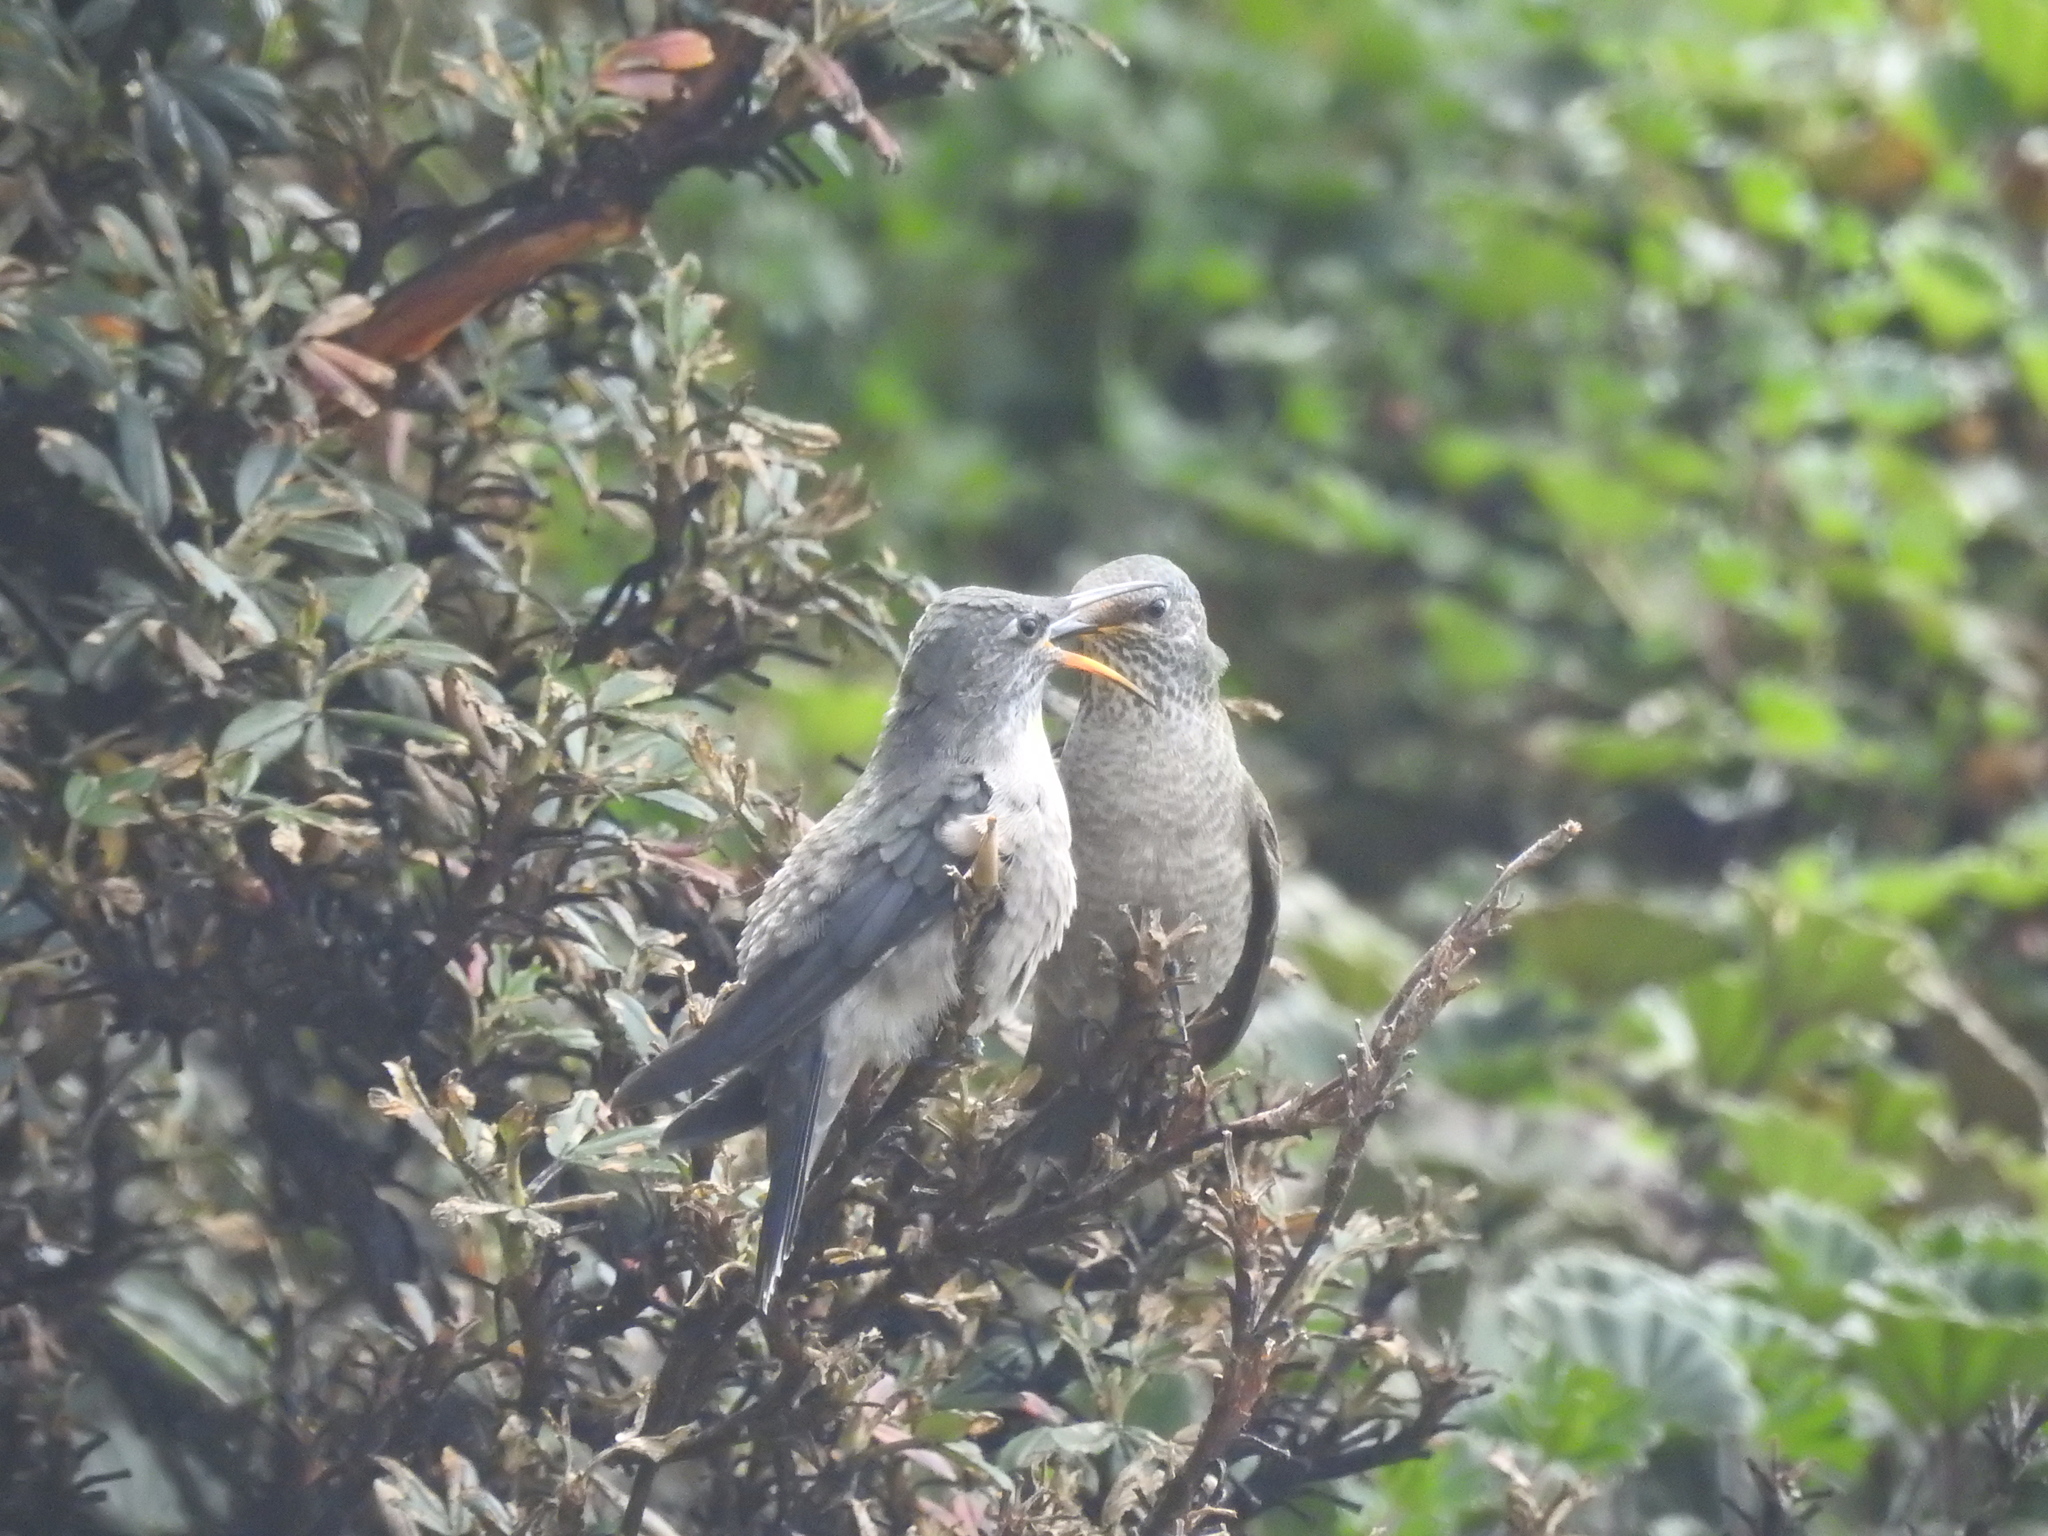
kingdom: Animalia
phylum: Chordata
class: Aves
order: Apodiformes
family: Trochilidae
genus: Oreotrochilus
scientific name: Oreotrochilus chimborazo
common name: Ecuadorian hillstar
